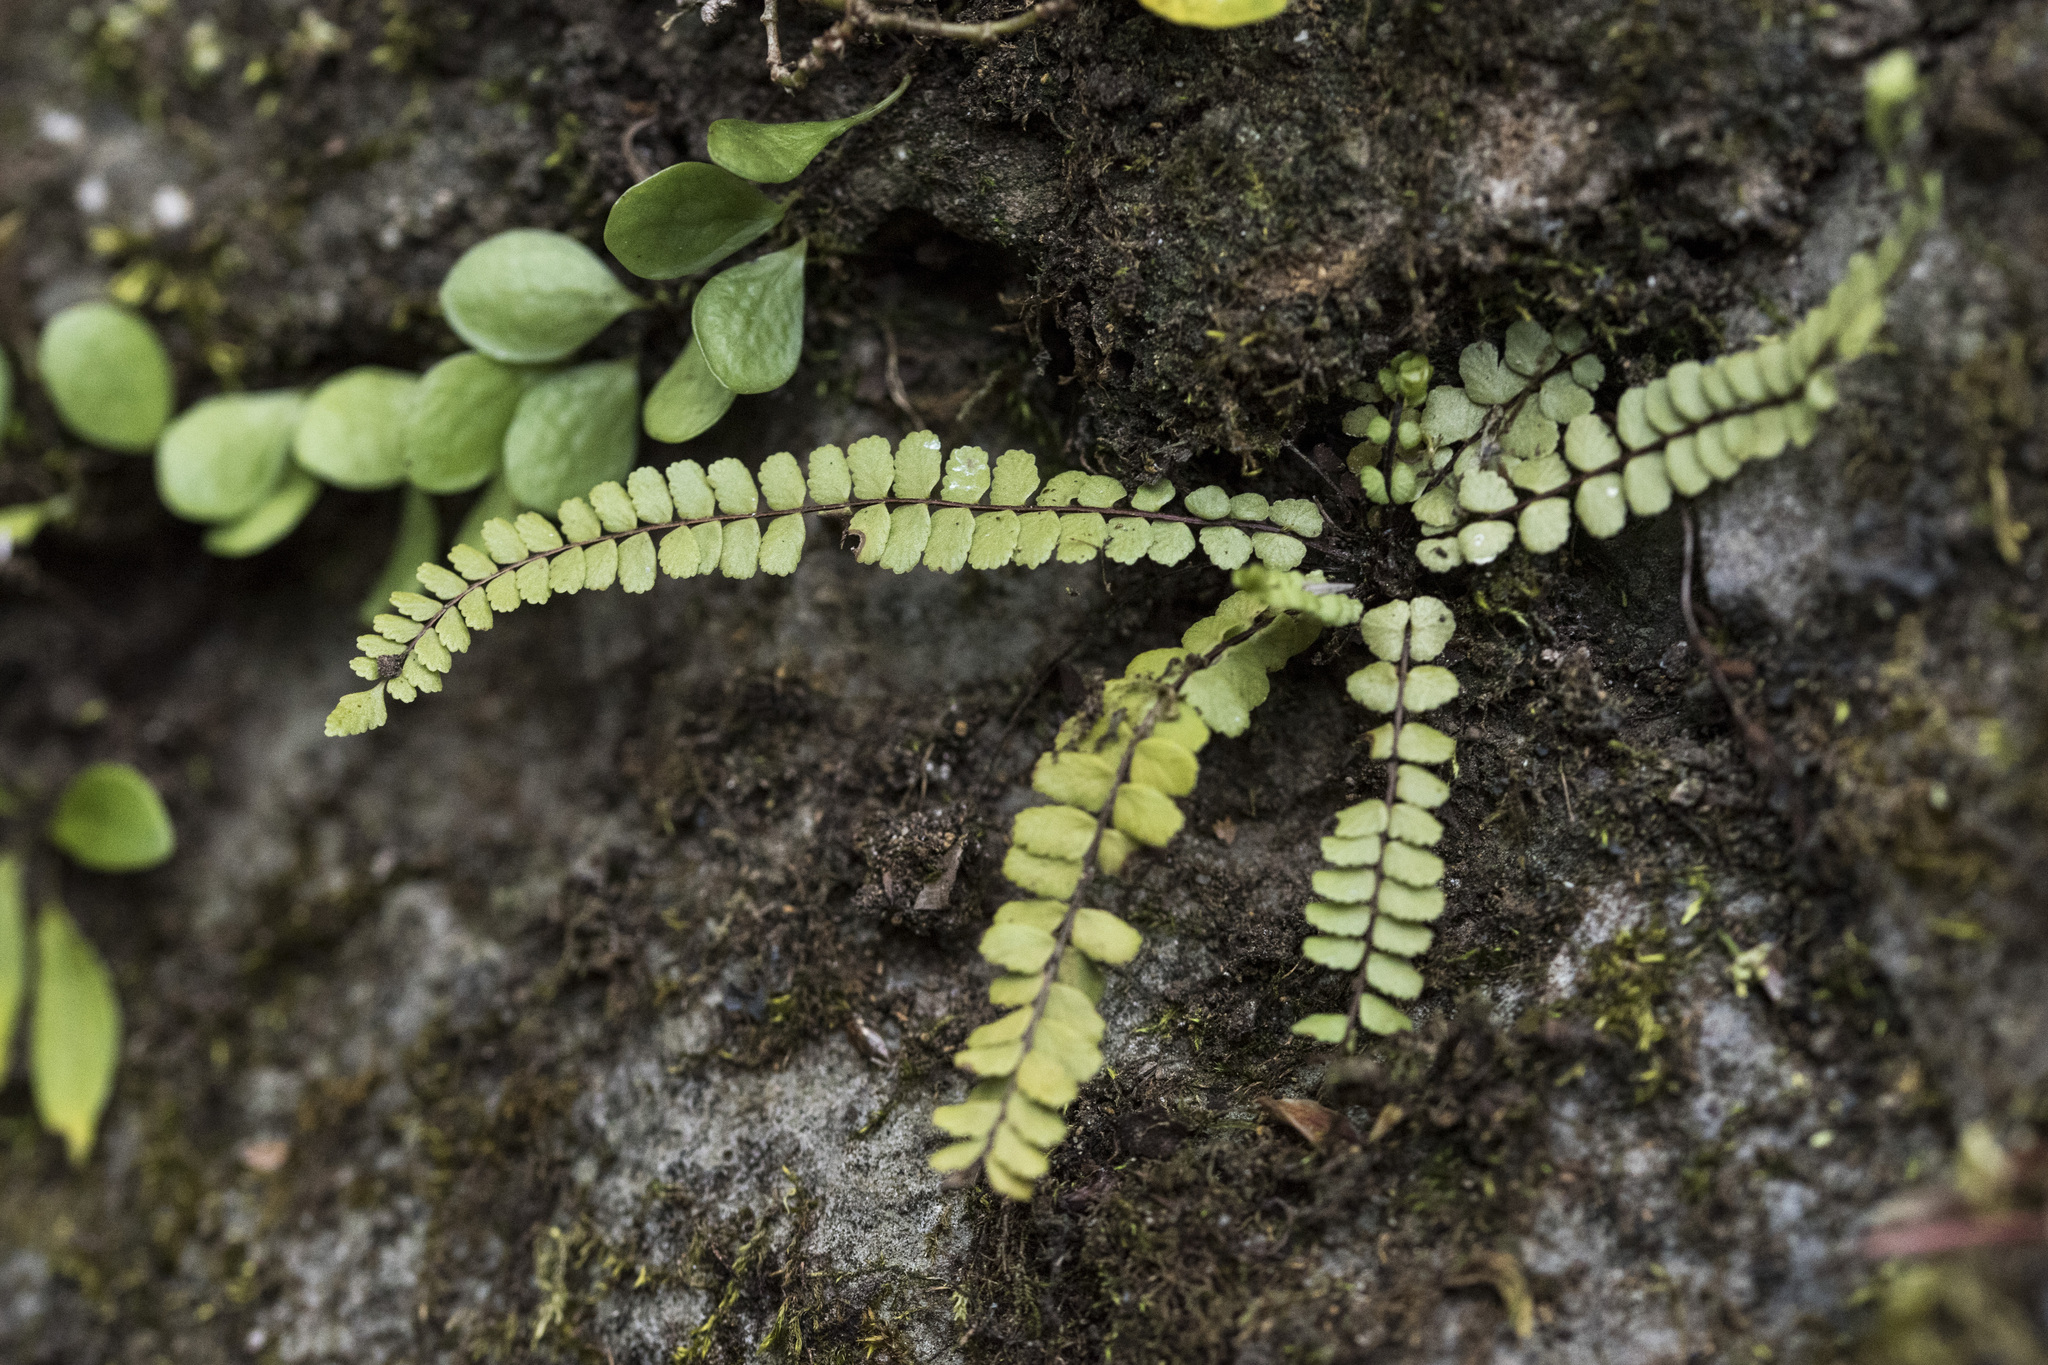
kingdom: Plantae
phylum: Tracheophyta
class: Polypodiopsida
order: Polypodiales
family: Aspleniaceae
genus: Asplenium
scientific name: Asplenium trichomanes
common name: Maidenhair spleenwort
